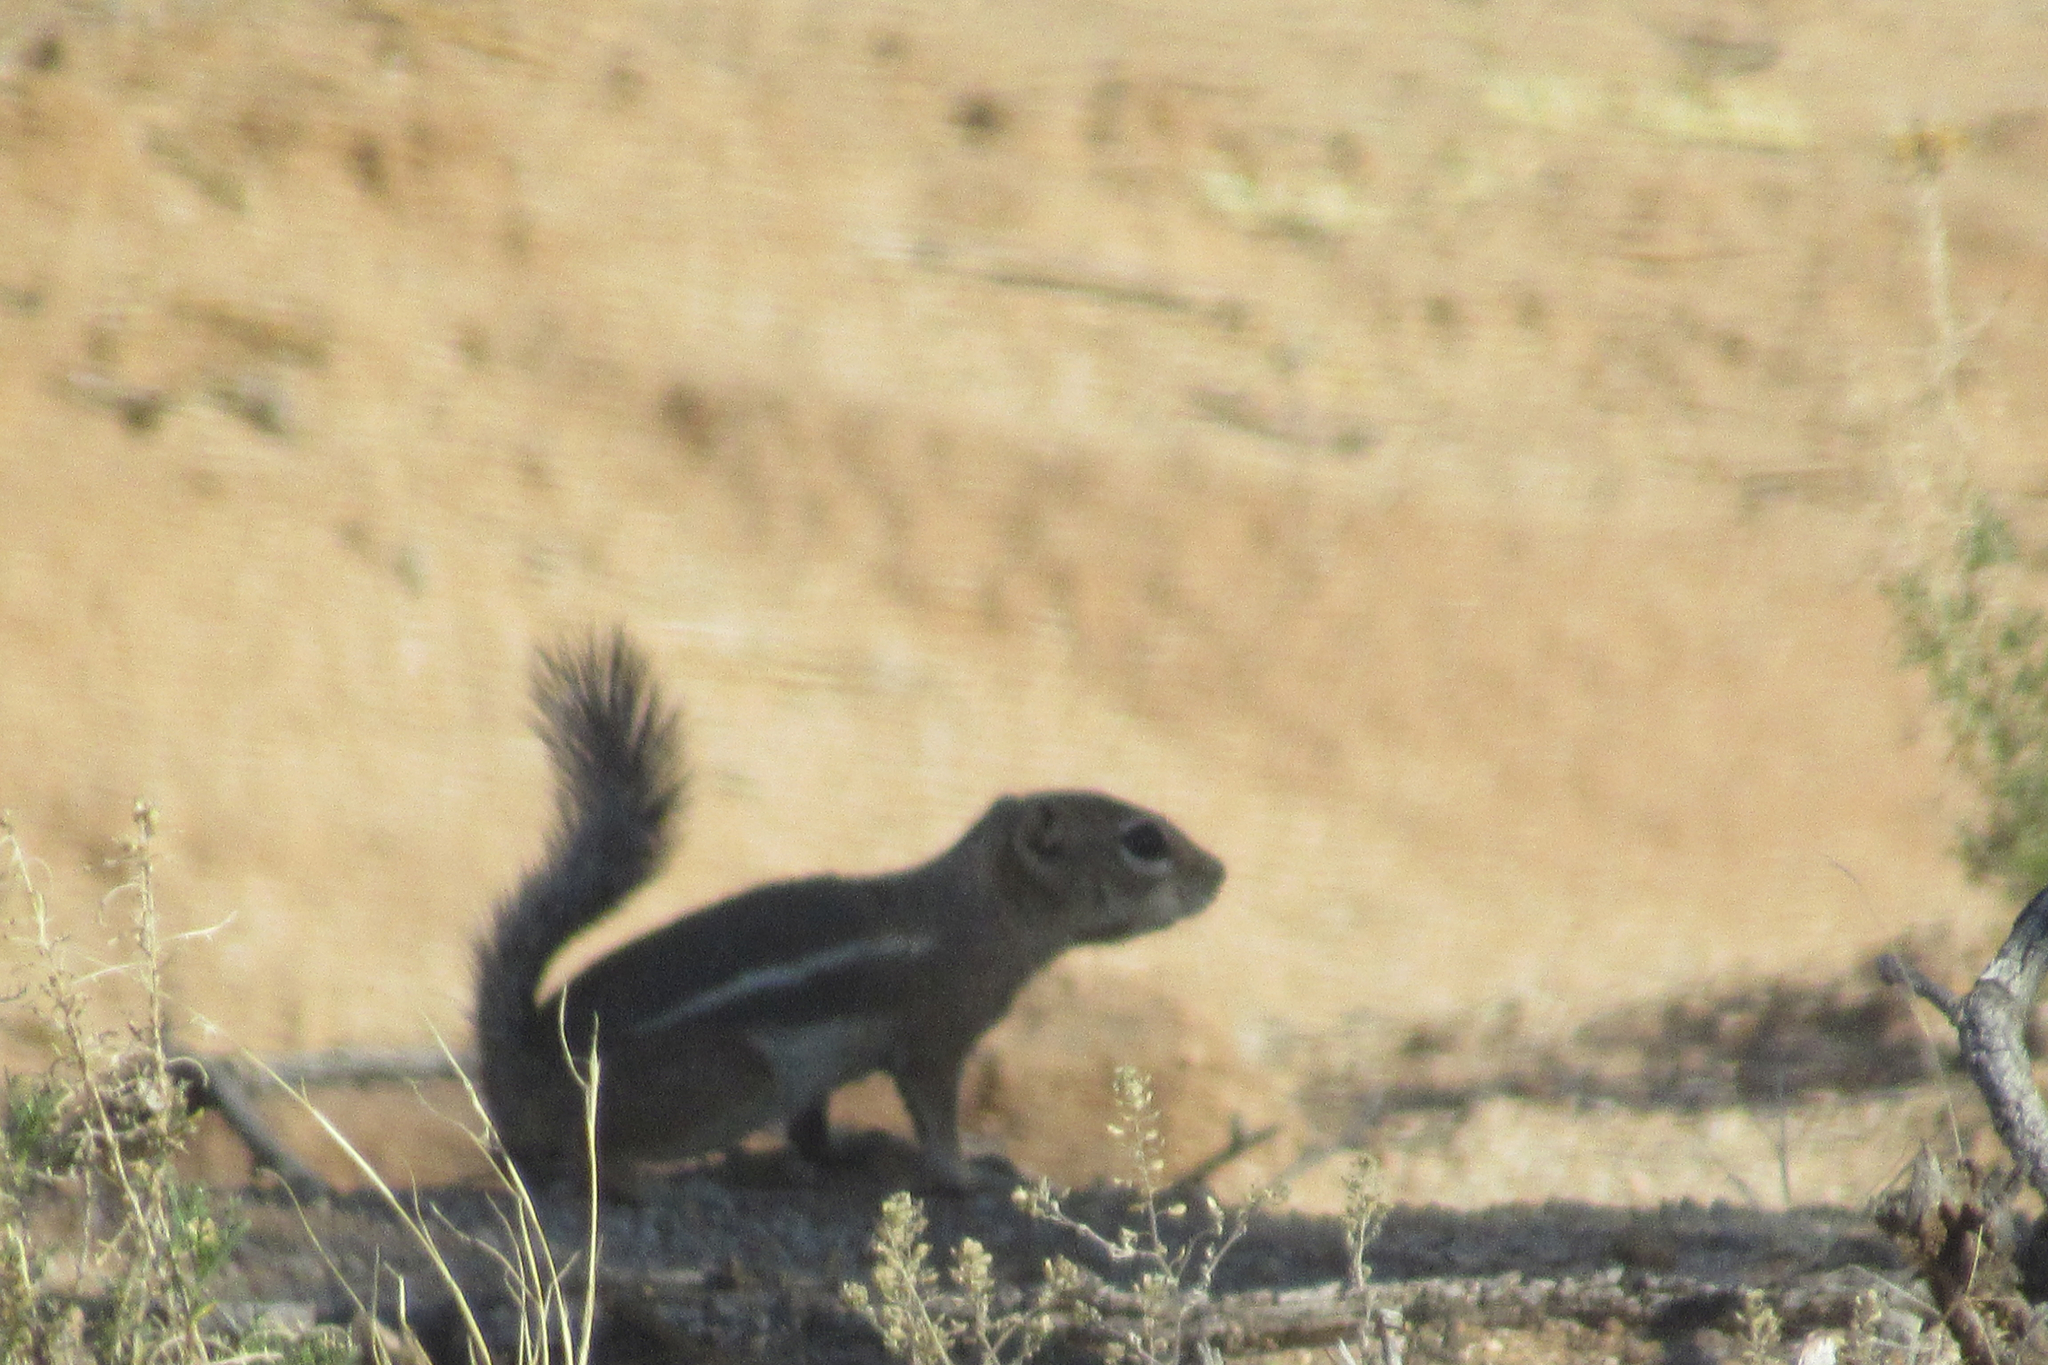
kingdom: Animalia
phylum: Chordata
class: Mammalia
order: Rodentia
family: Sciuridae
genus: Ammospermophilus
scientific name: Ammospermophilus harrisii
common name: Harris's antelope squirrel
